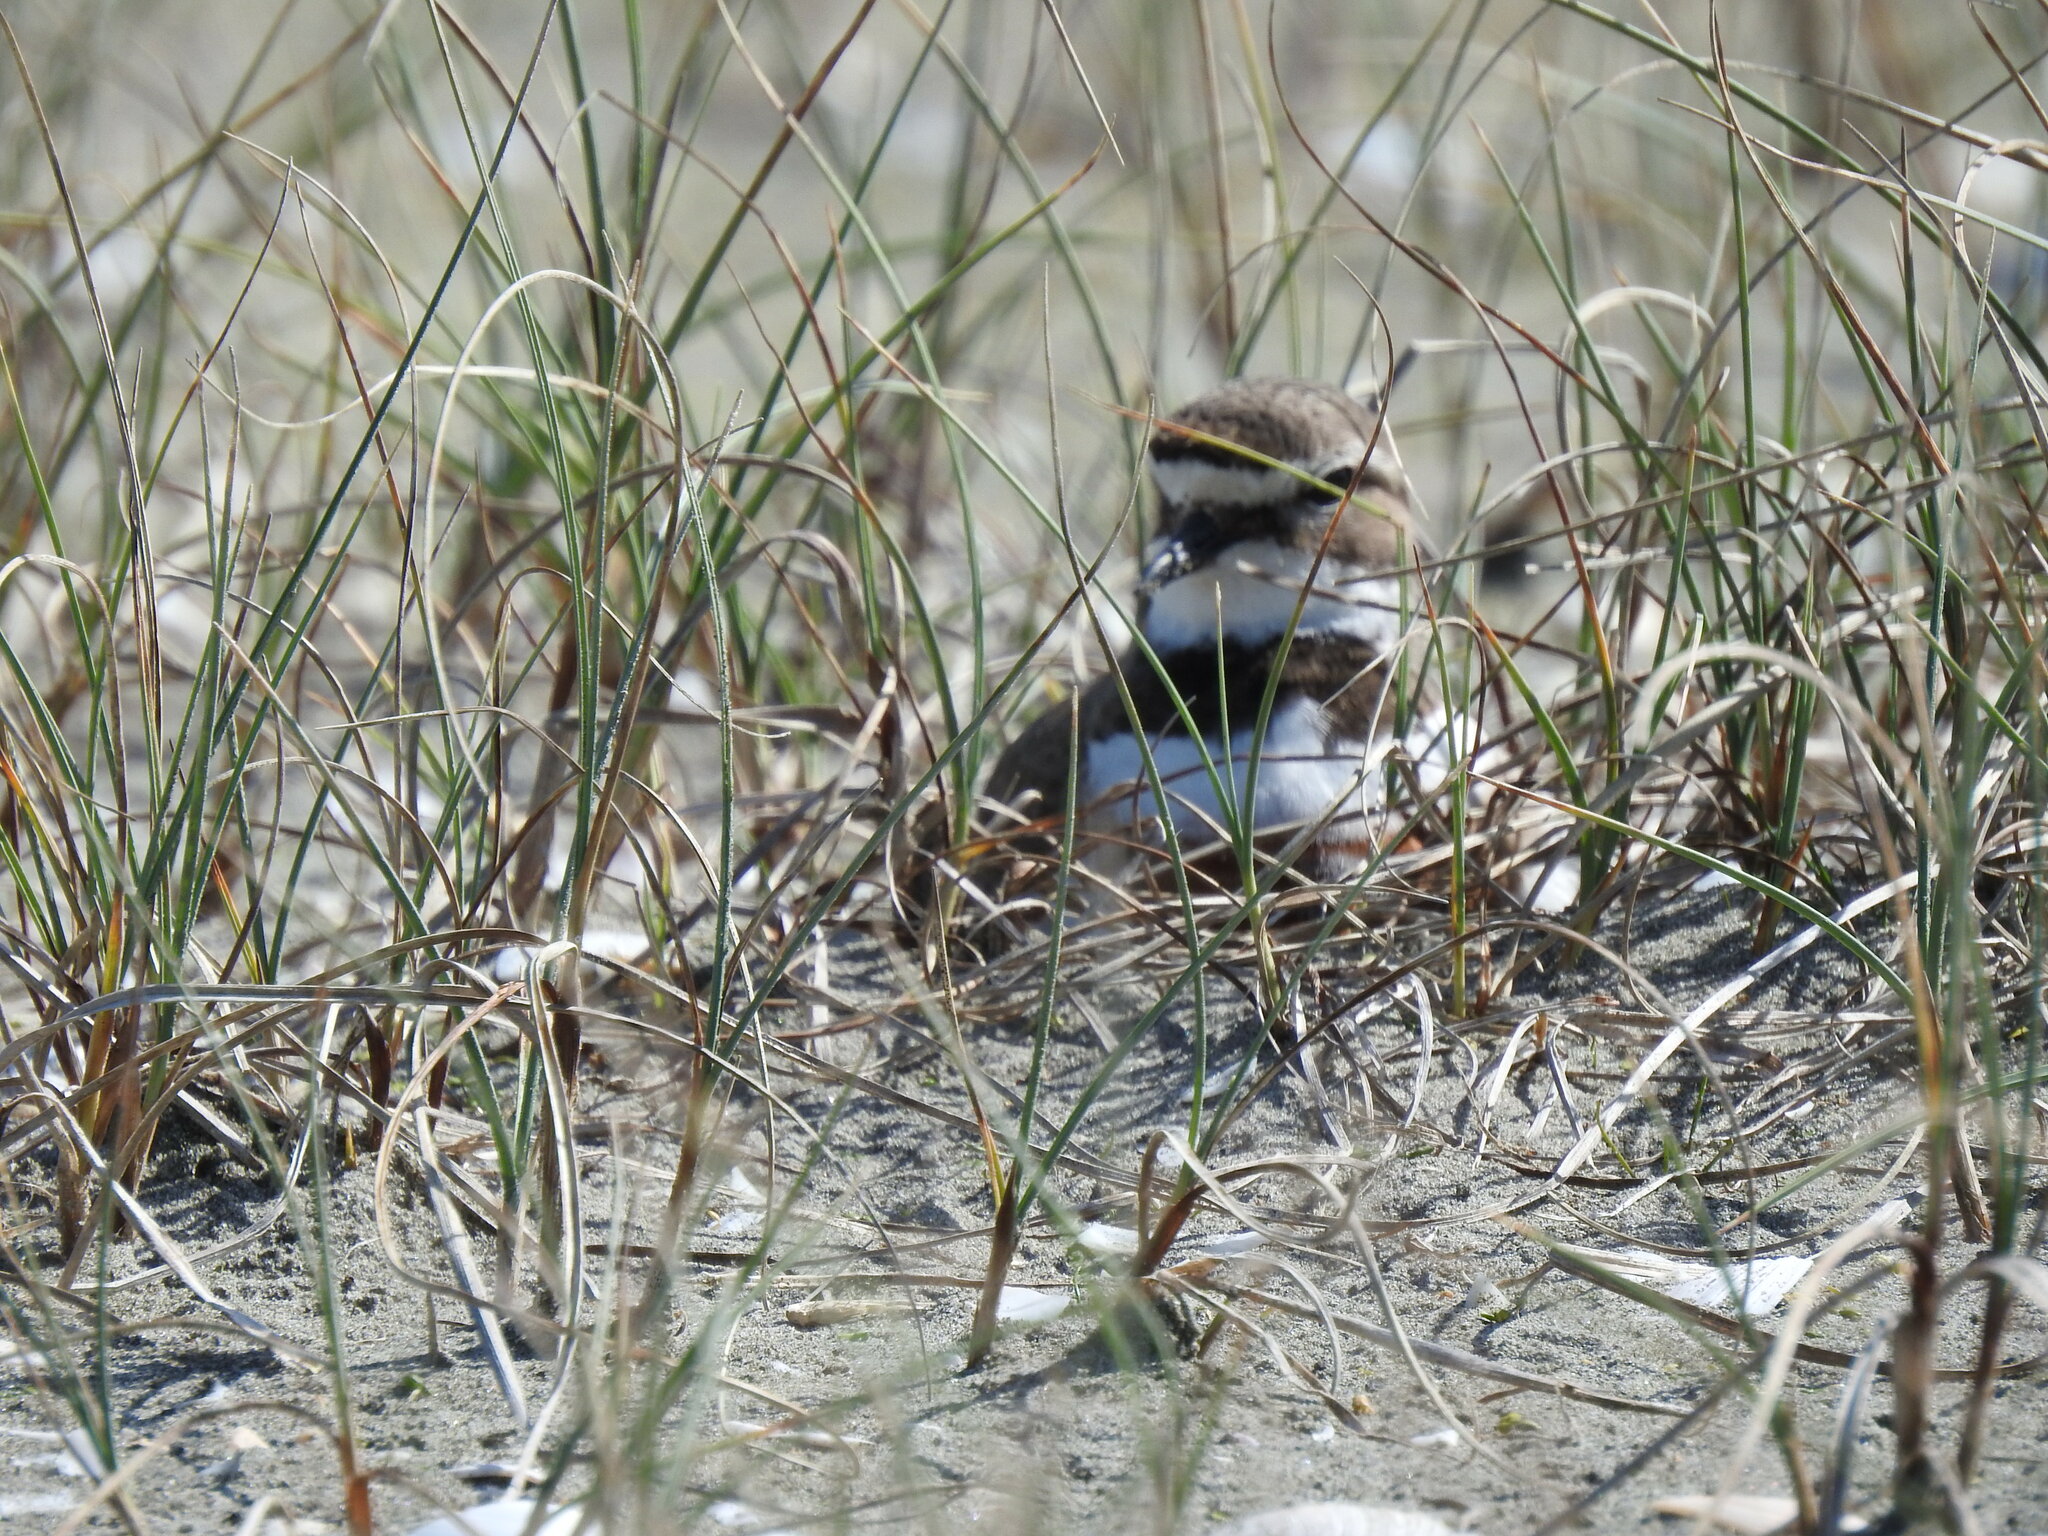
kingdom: Animalia
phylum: Chordata
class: Aves
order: Charadriiformes
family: Charadriidae
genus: Anarhynchus
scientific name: Anarhynchus
